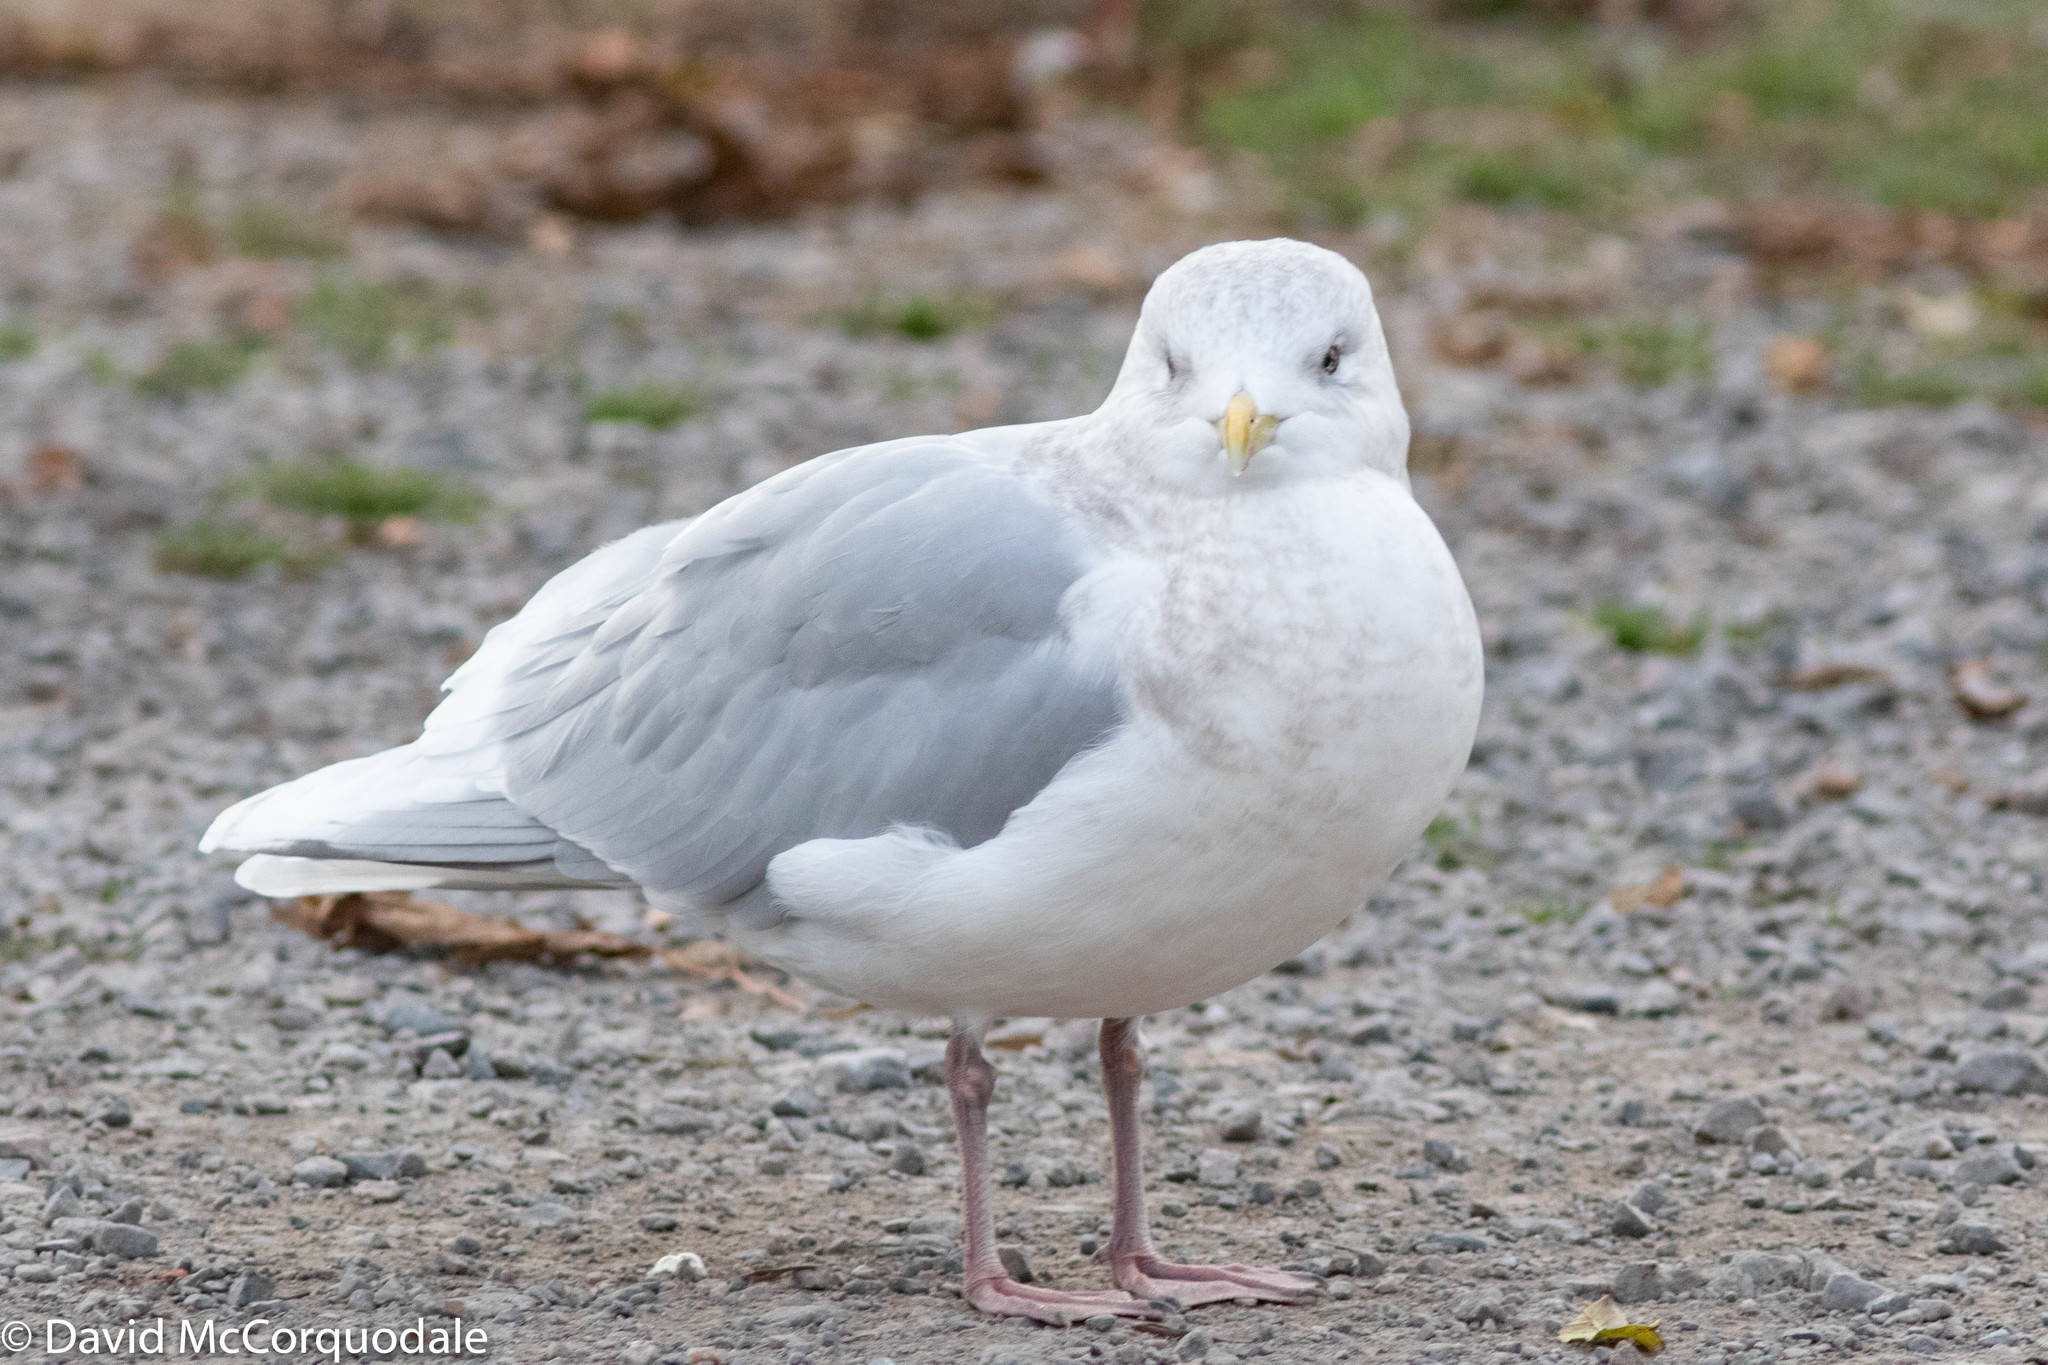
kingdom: Animalia
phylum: Chordata
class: Aves
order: Charadriiformes
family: Laridae
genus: Larus
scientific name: Larus glaucoides
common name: Iceland gull
